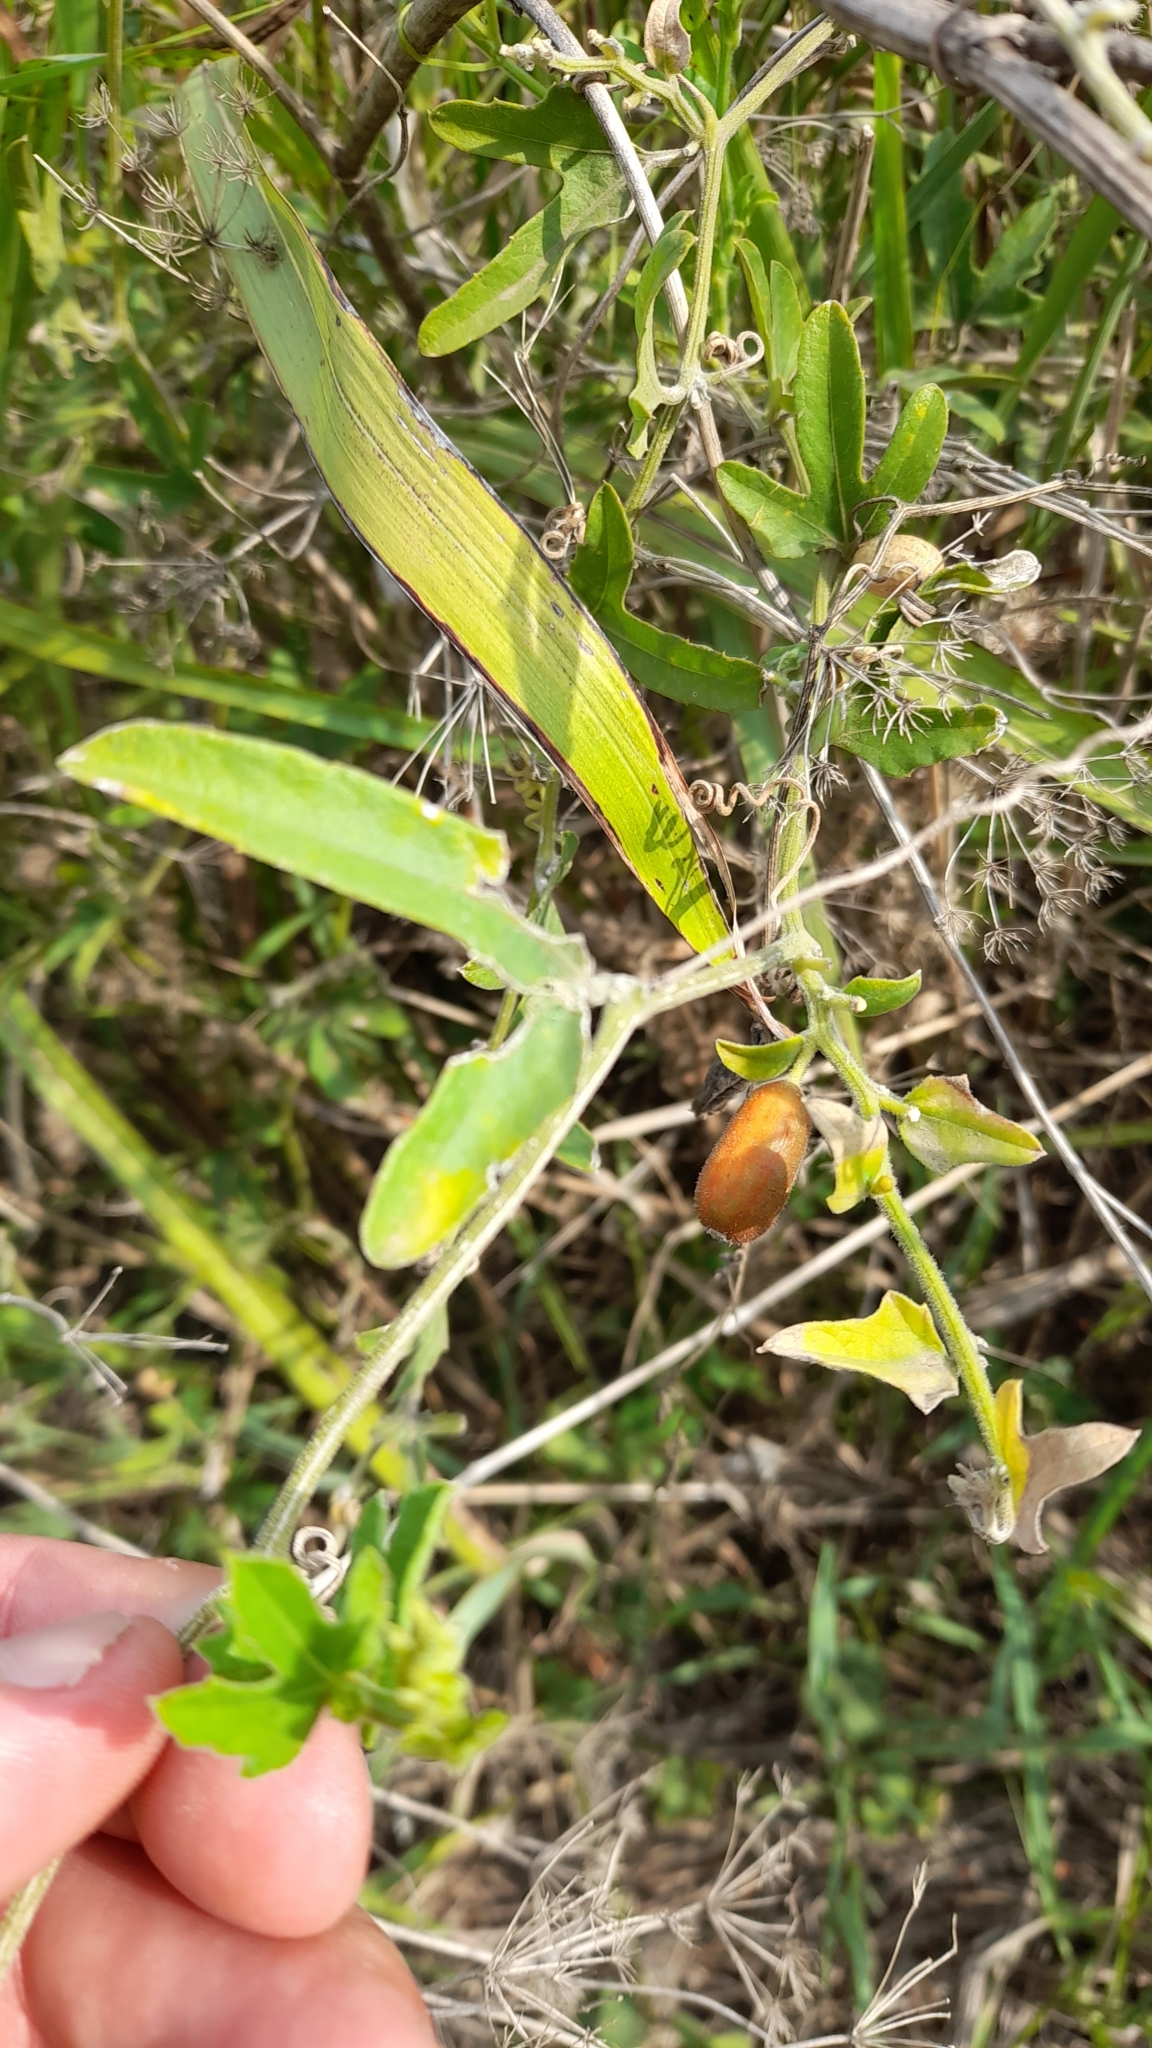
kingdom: Plantae
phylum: Tracheophyta
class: Magnoliopsida
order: Cucurbitales
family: Cucurbitaceae
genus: Cayaponia
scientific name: Cayaponia podantha
